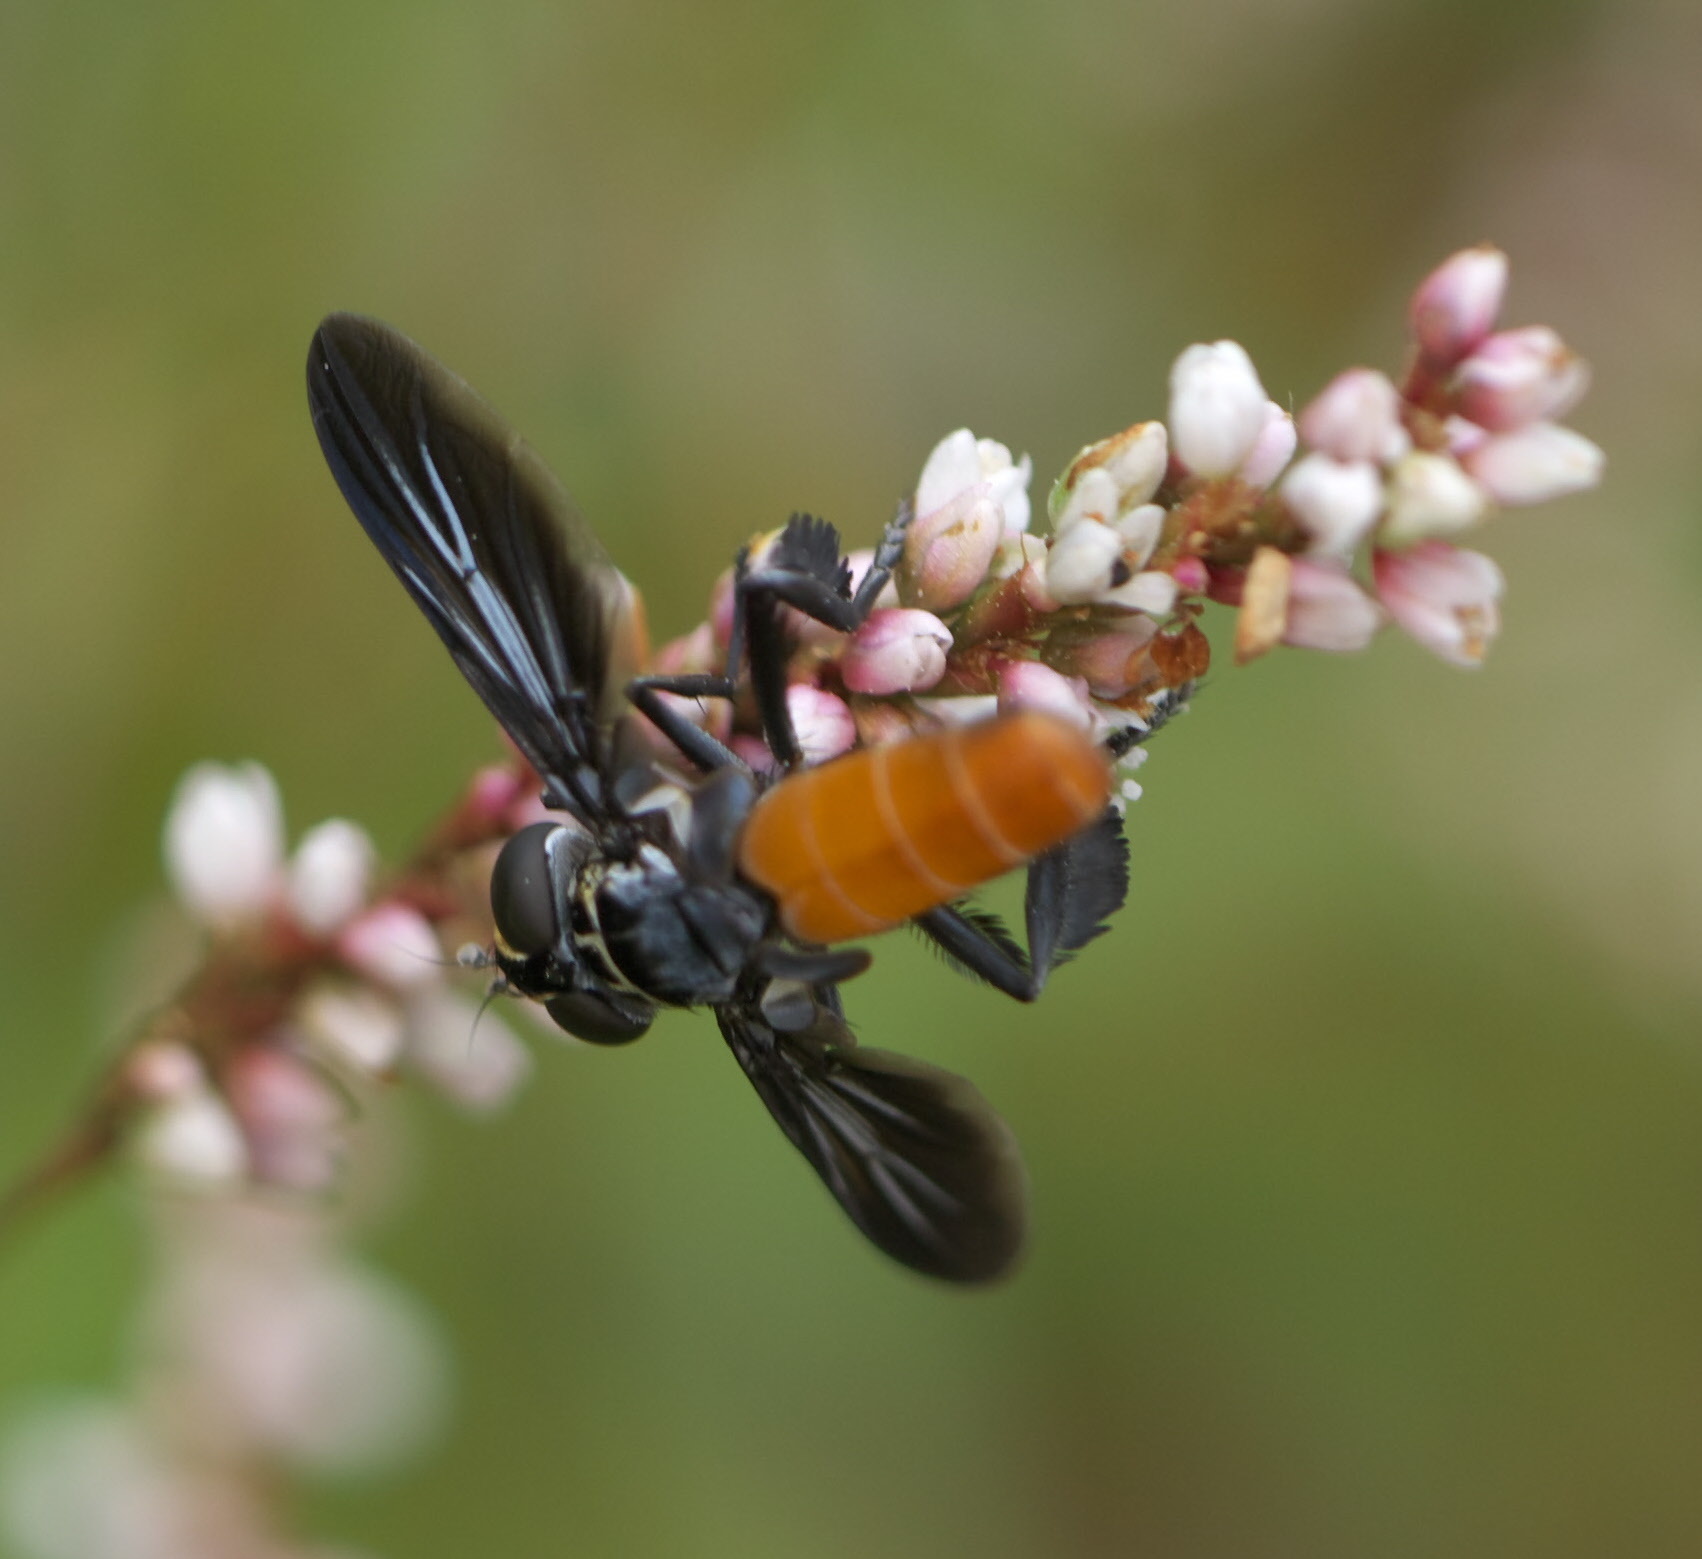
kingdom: Animalia
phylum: Arthropoda
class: Insecta
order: Diptera
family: Tachinidae
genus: Trichopoda
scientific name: Trichopoda pennipes
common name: Tachinid fly
